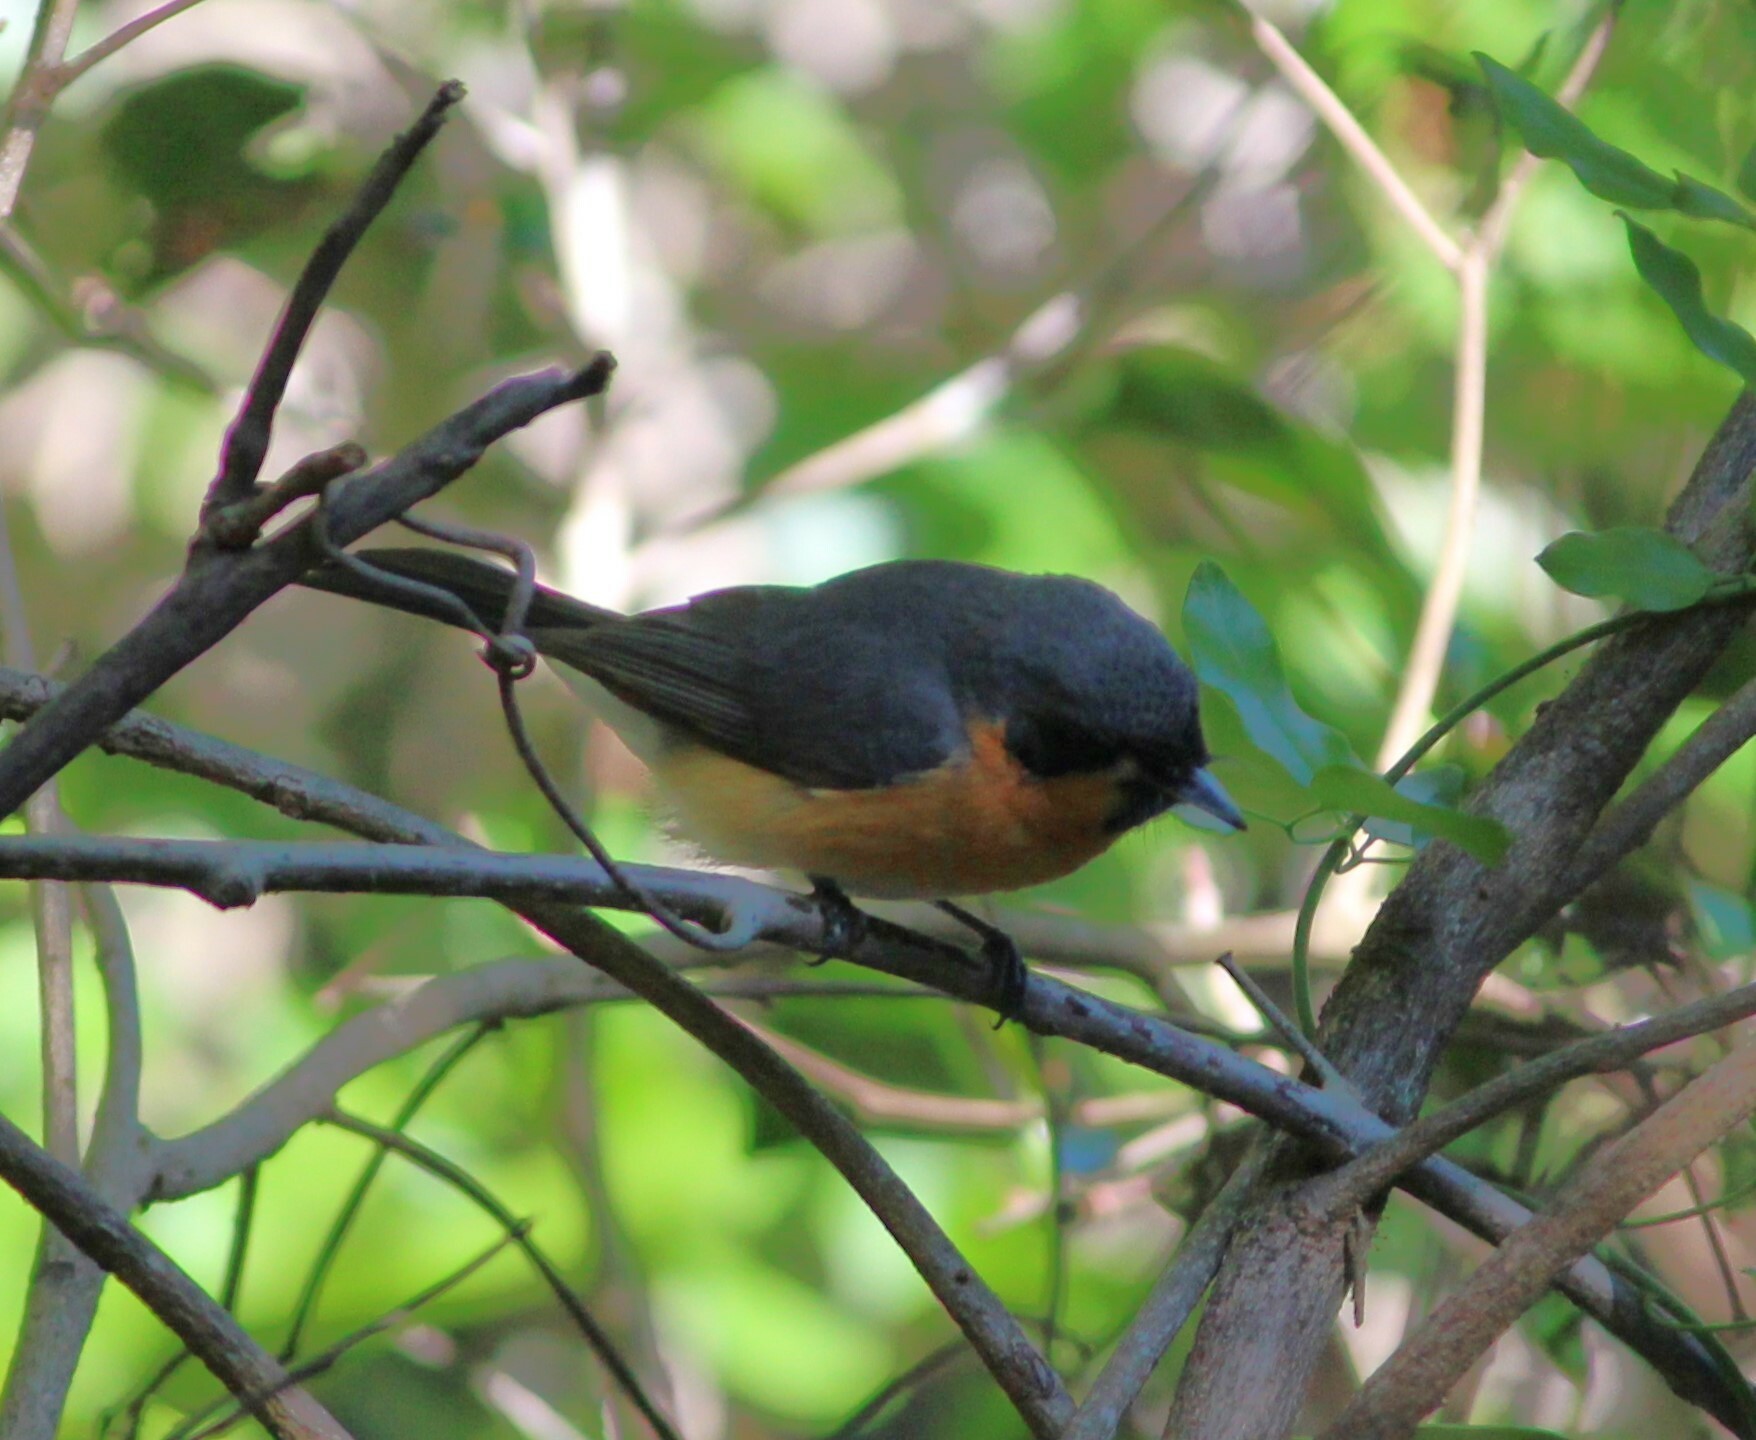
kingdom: Animalia
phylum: Chordata
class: Aves
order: Passeriformes
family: Monarchidae
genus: Symposiachrus
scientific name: Symposiachrus trivirgatus
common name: Spectacled monarch
